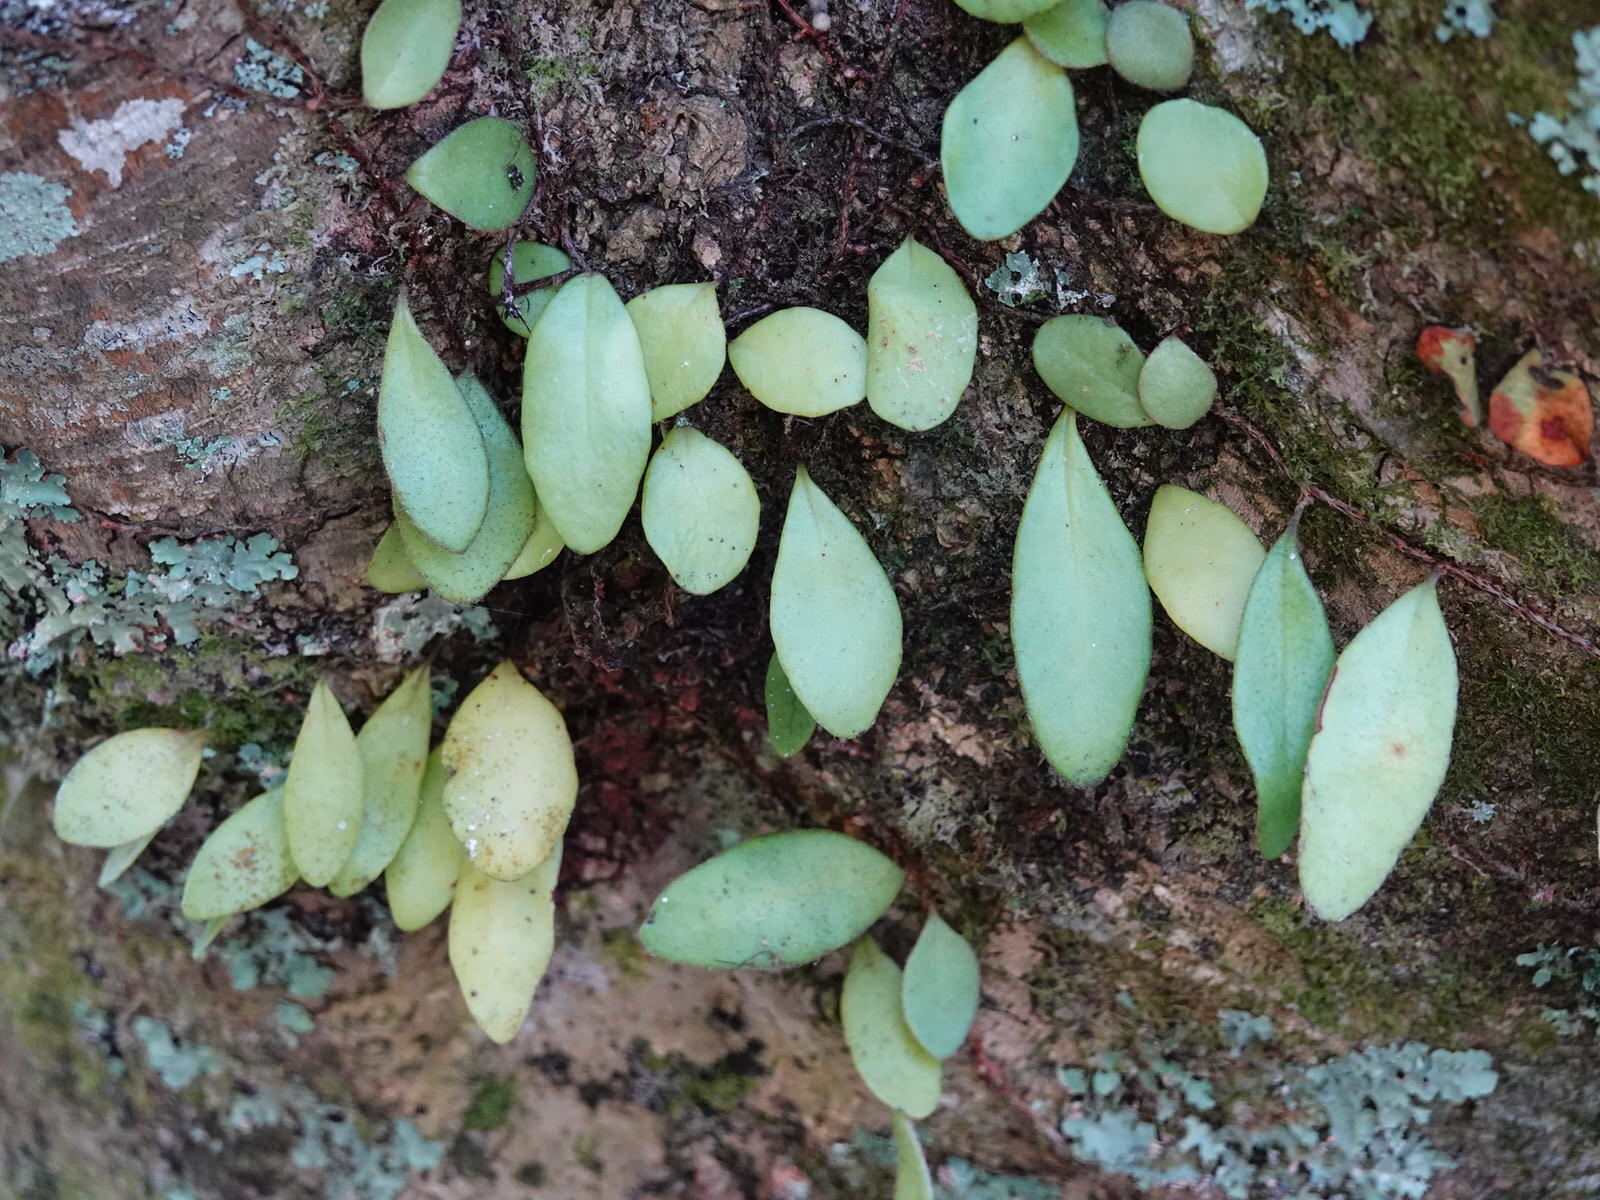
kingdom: Plantae
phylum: Tracheophyta
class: Polypodiopsida
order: Polypodiales
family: Polypodiaceae
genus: Pyrrosia
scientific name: Pyrrosia eleagnifolia
